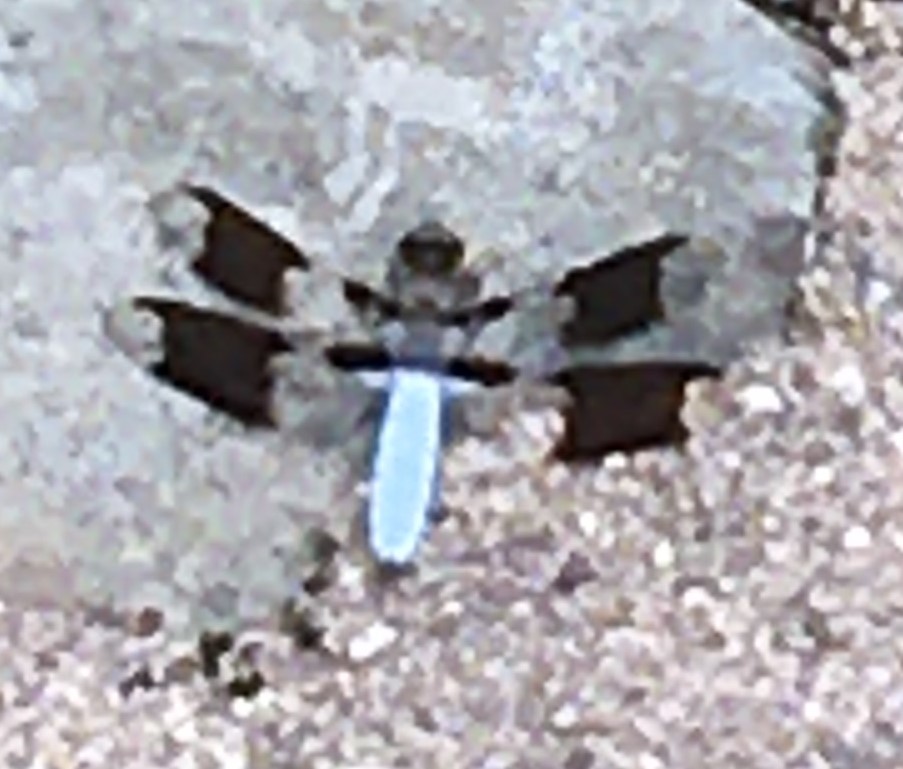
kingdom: Animalia
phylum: Arthropoda
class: Insecta
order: Odonata
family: Libellulidae
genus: Plathemis
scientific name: Plathemis lydia
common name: Common whitetail
